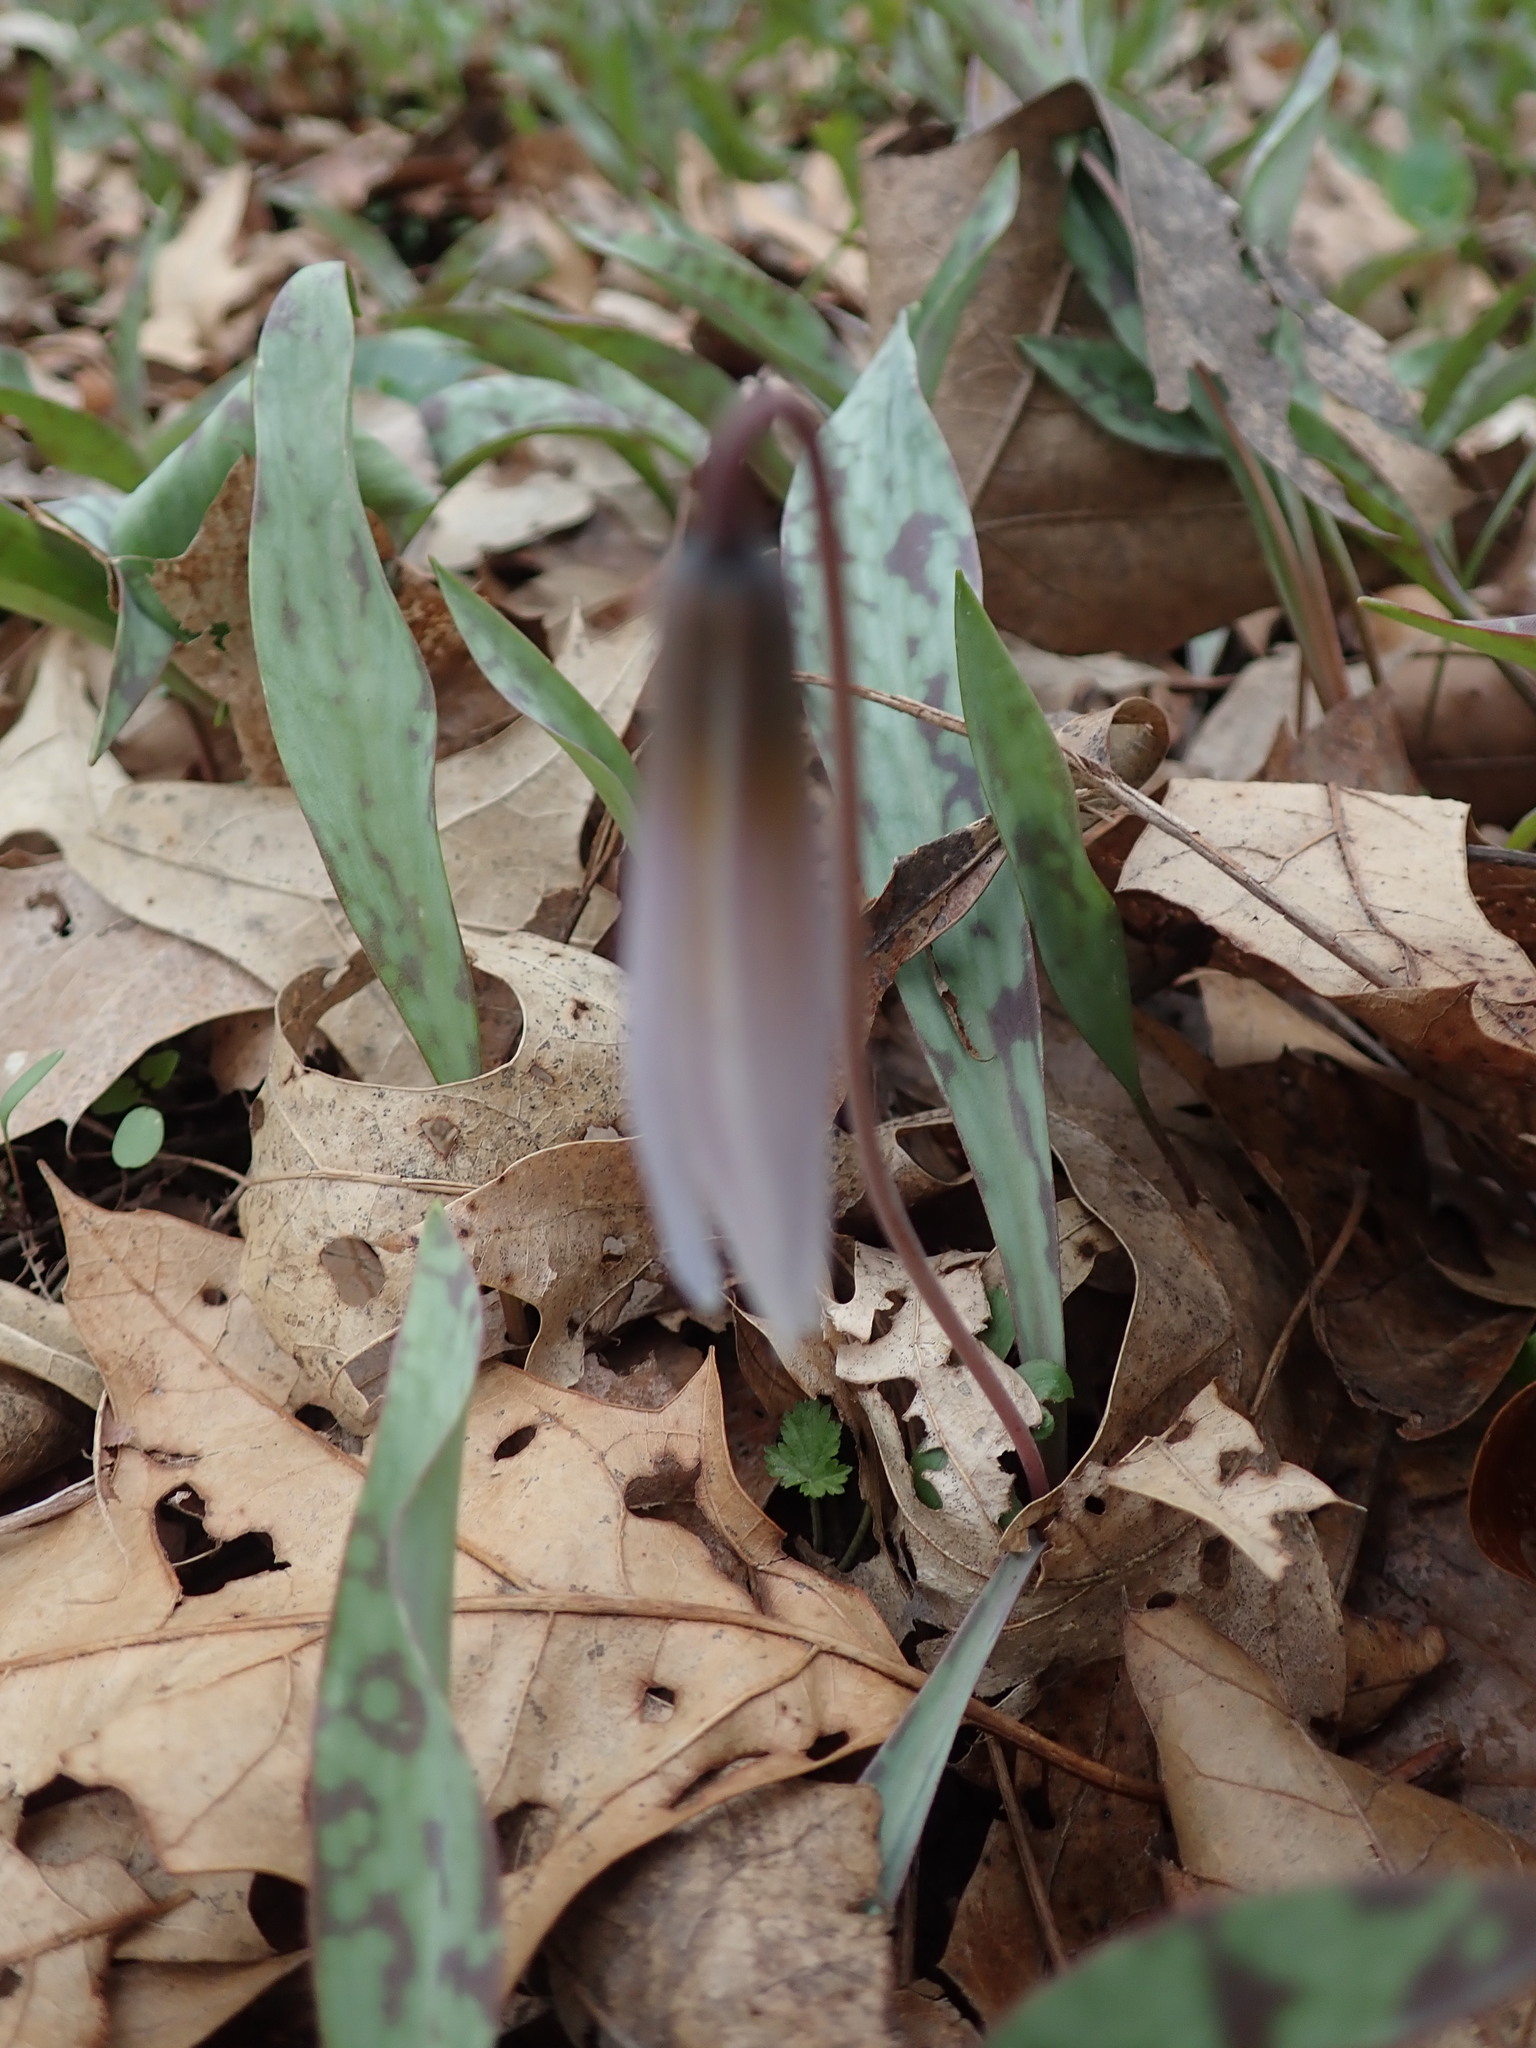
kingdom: Plantae
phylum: Tracheophyta
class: Liliopsida
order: Liliales
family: Liliaceae
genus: Erythronium
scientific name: Erythronium albidum
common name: White trout-lily
